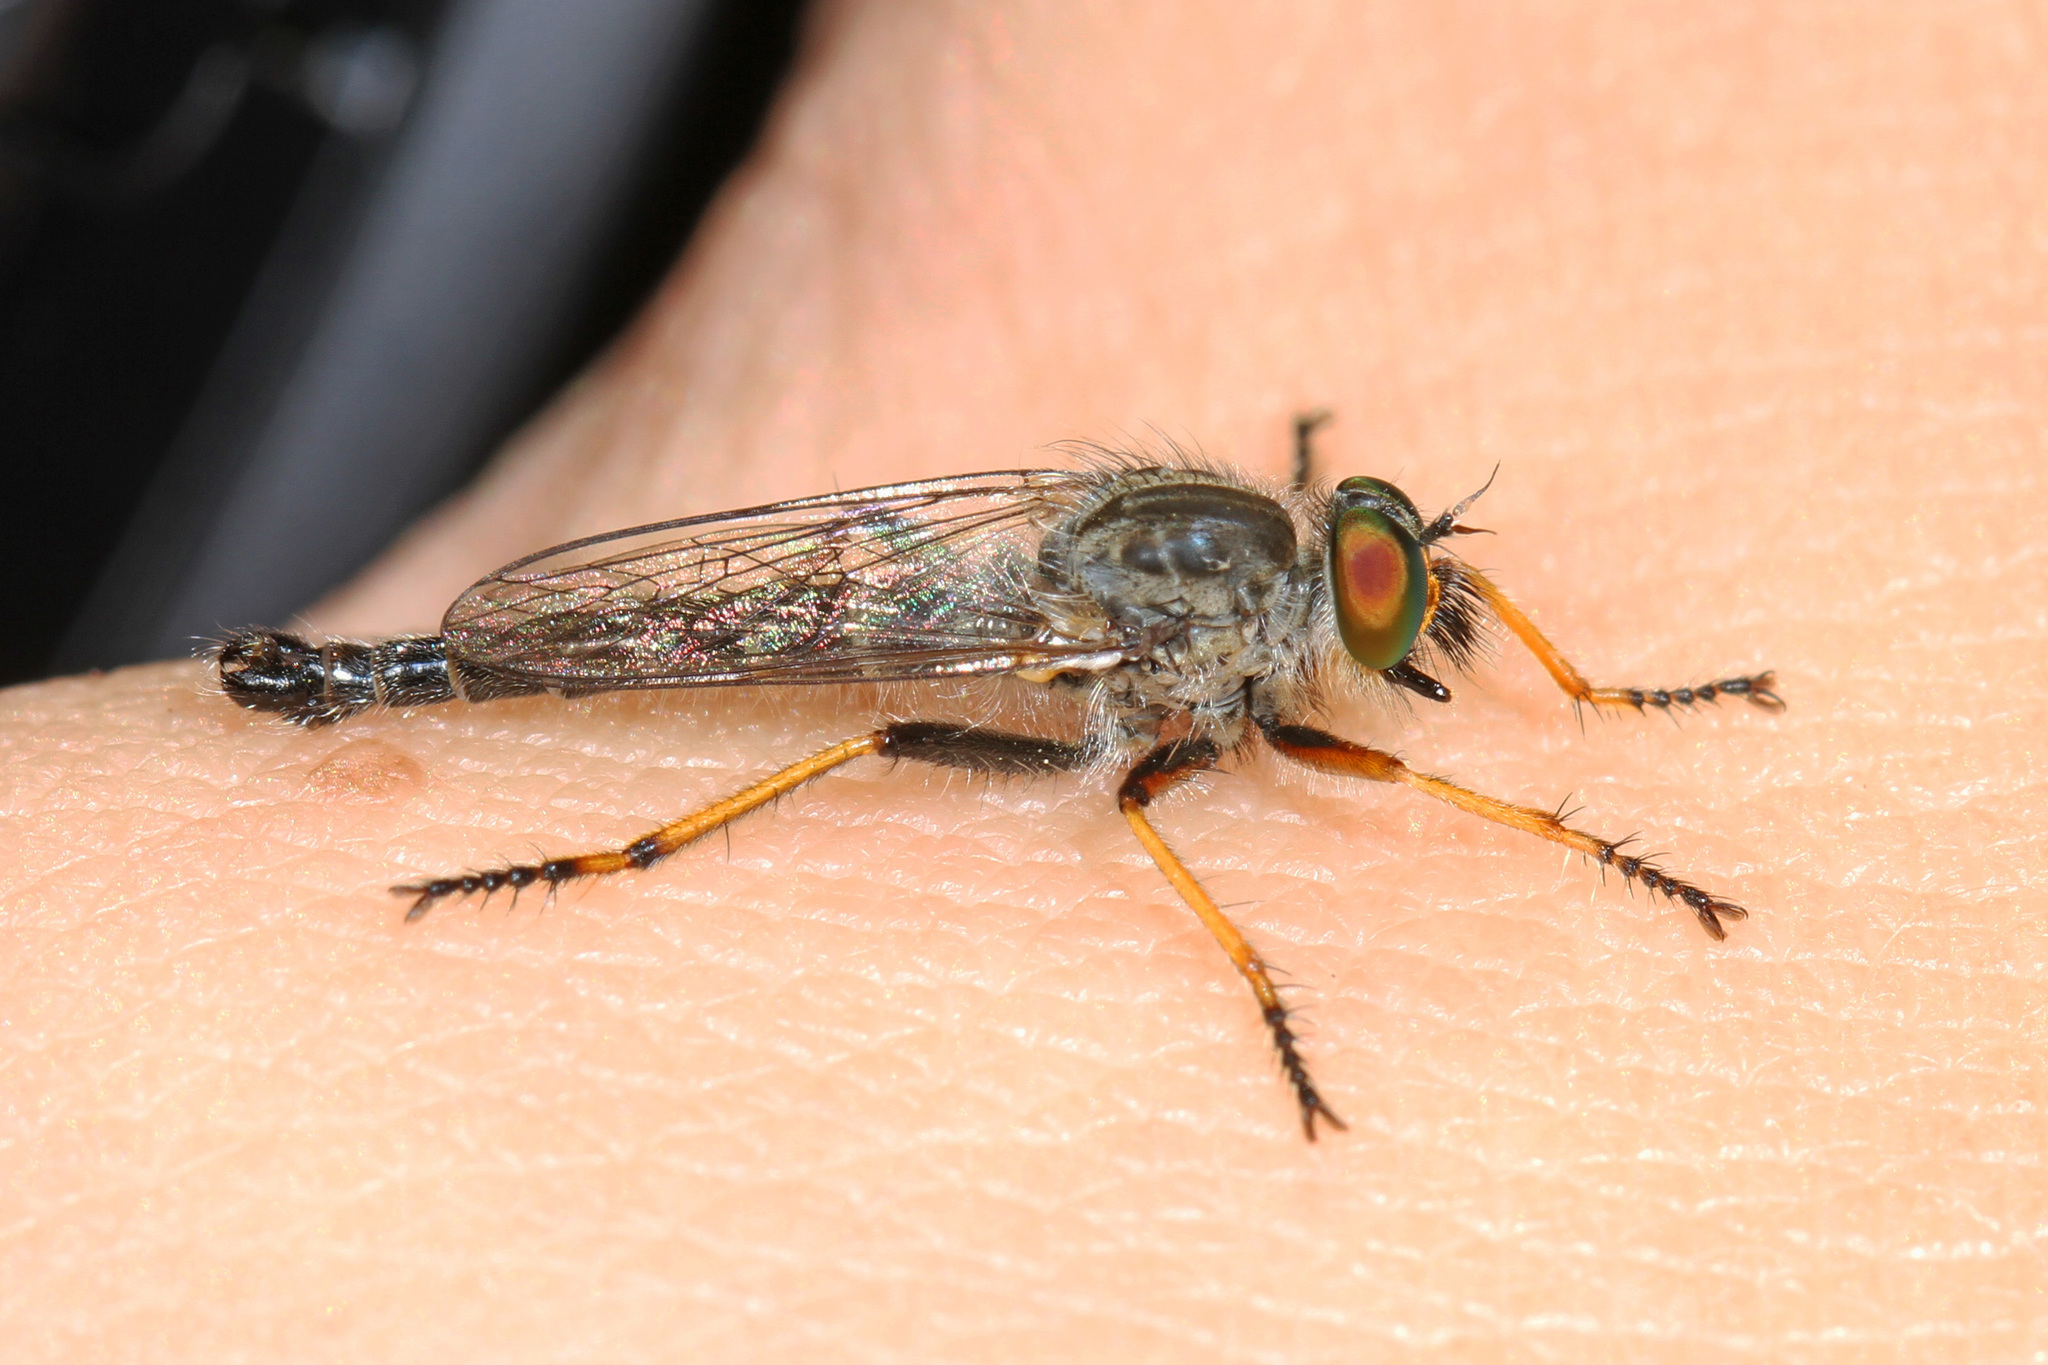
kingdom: Animalia
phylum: Arthropoda
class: Insecta
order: Diptera
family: Asilidae
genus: Asilus
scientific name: Asilus flavofemoratus
